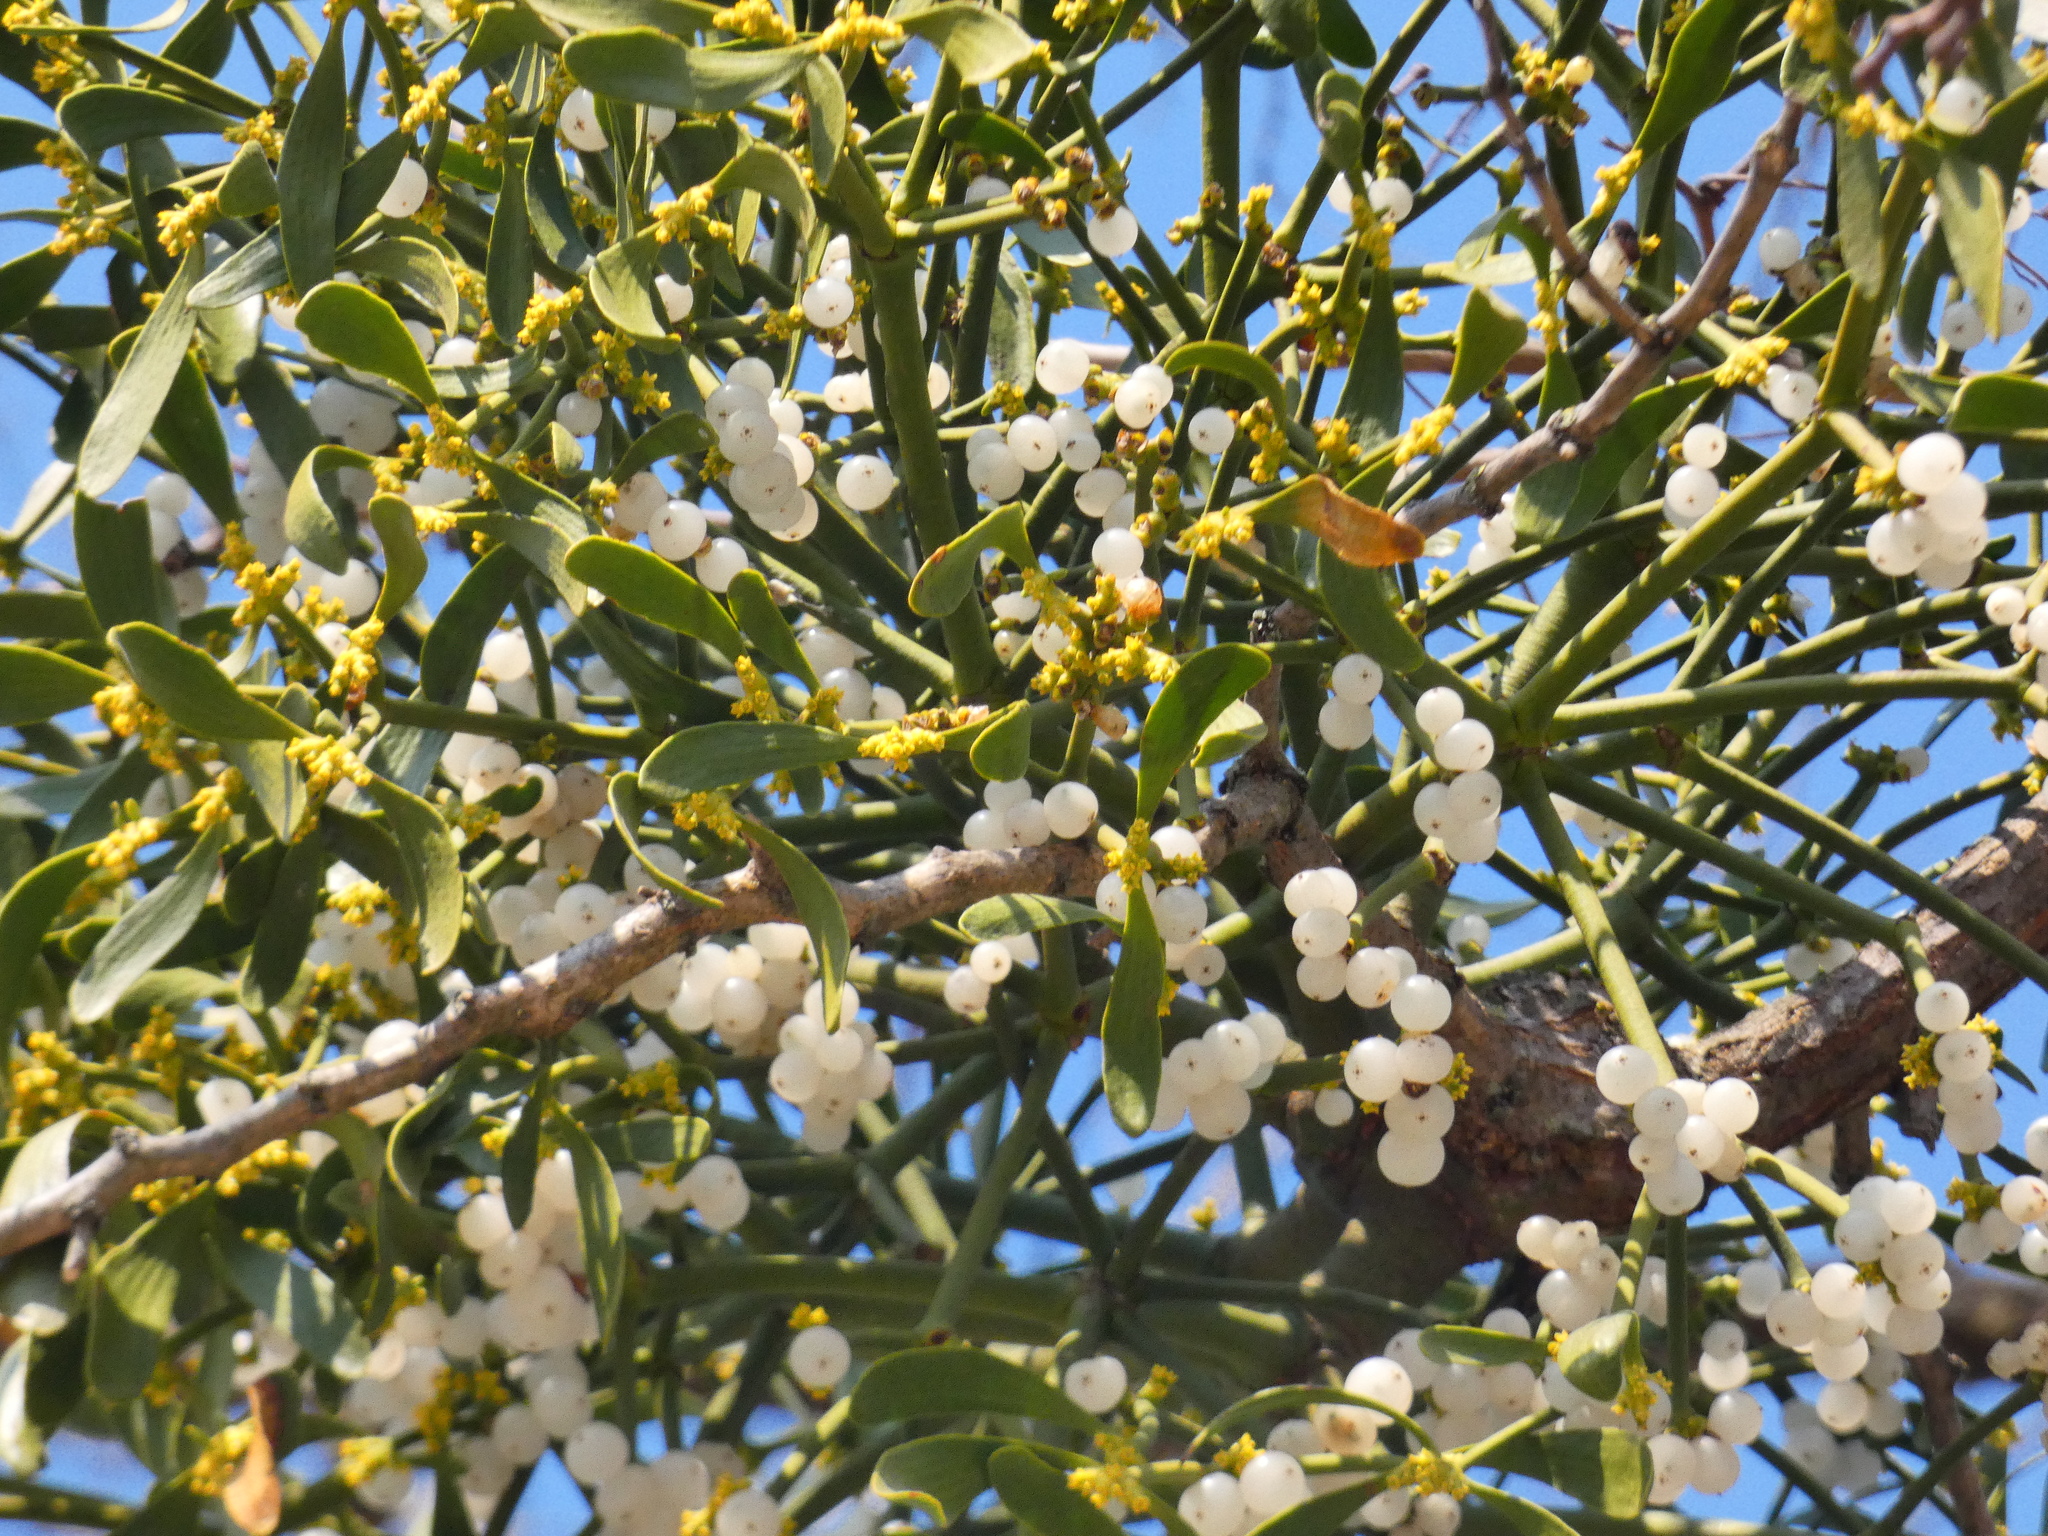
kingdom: Plantae
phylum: Tracheophyta
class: Magnoliopsida
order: Santalales
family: Viscaceae
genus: Viscum
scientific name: Viscum album
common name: Mistletoe
